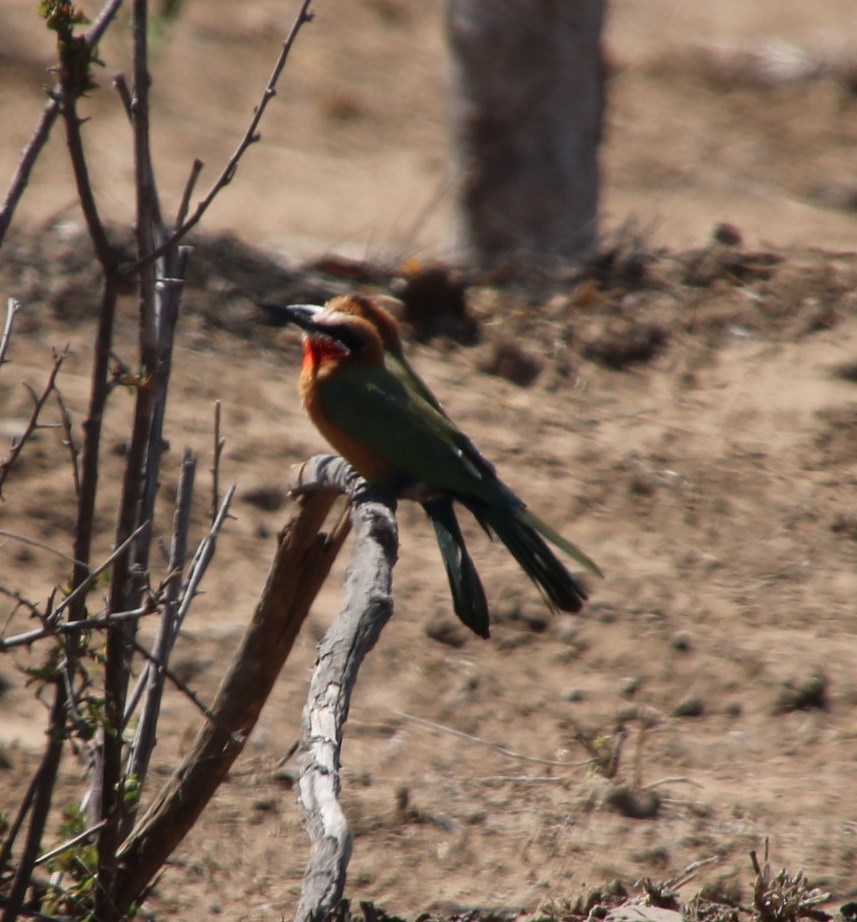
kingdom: Animalia
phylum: Chordata
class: Aves
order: Coraciiformes
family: Meropidae
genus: Merops
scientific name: Merops bullockoides
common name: White-fronted bee-eater
